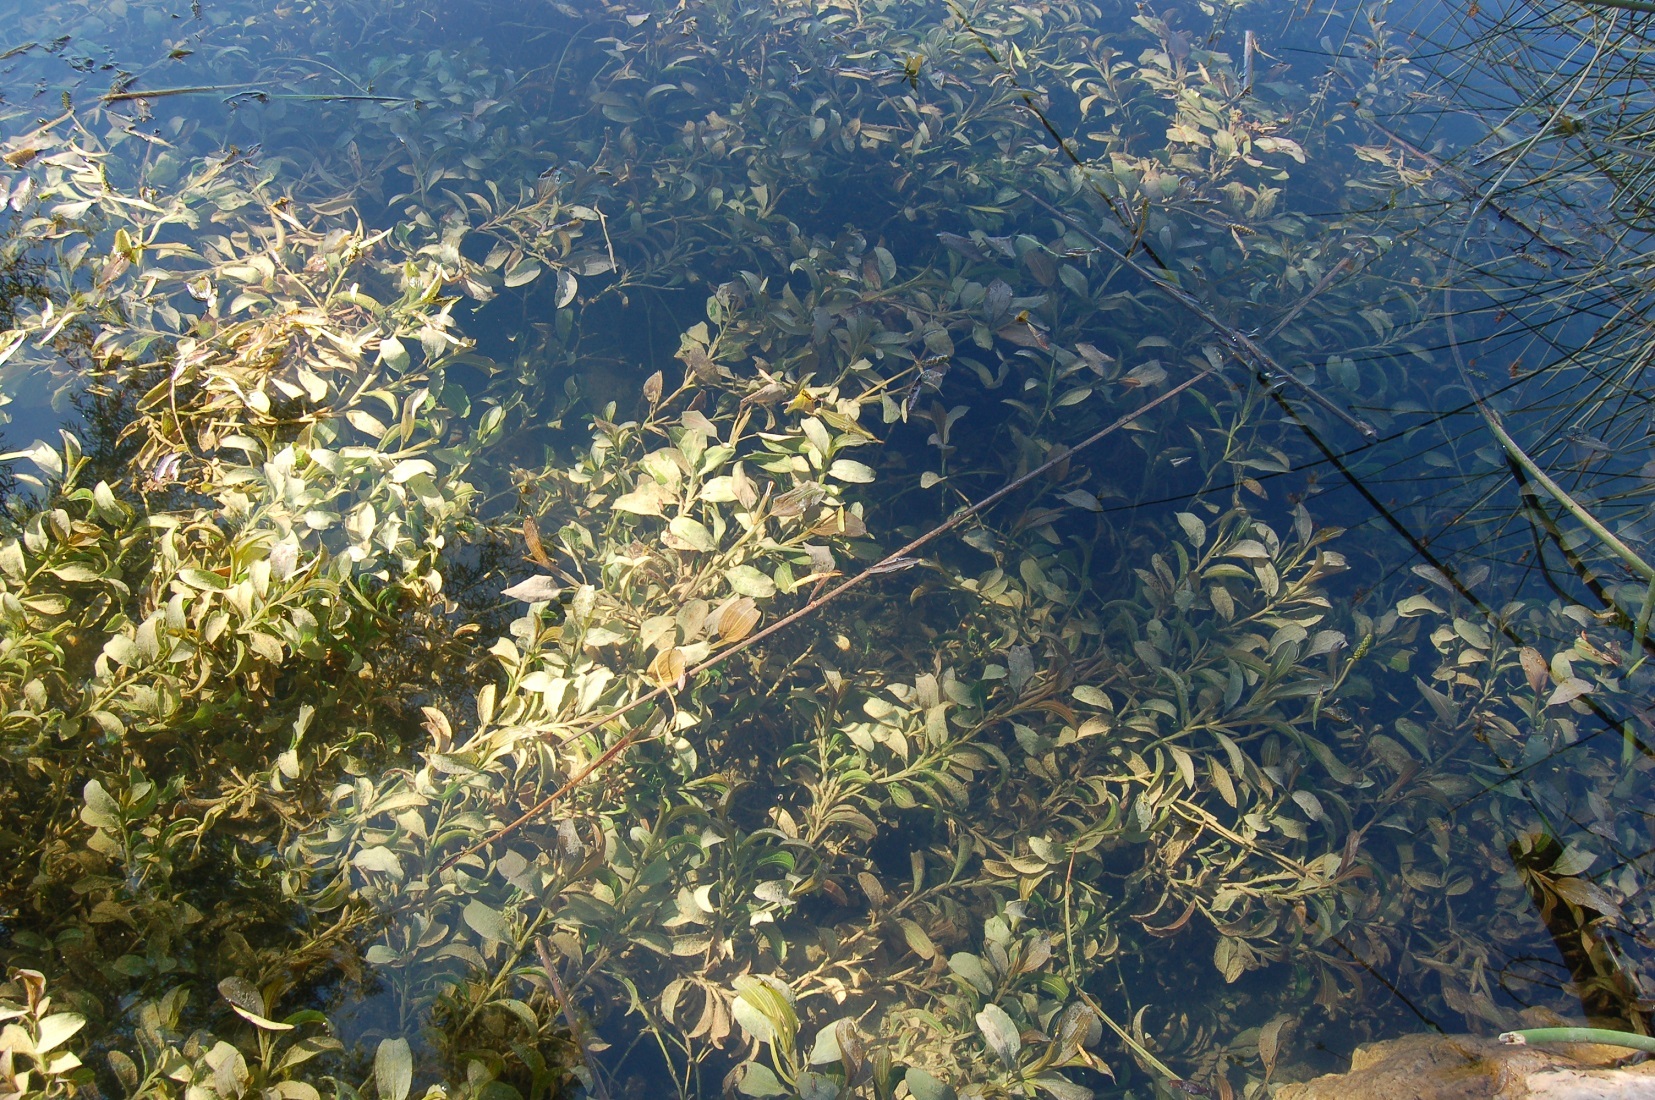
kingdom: Plantae
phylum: Tracheophyta
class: Liliopsida
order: Alismatales
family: Potamogetonaceae
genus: Potamogeton
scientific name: Potamogeton nodosus
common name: Loddon pondweed
